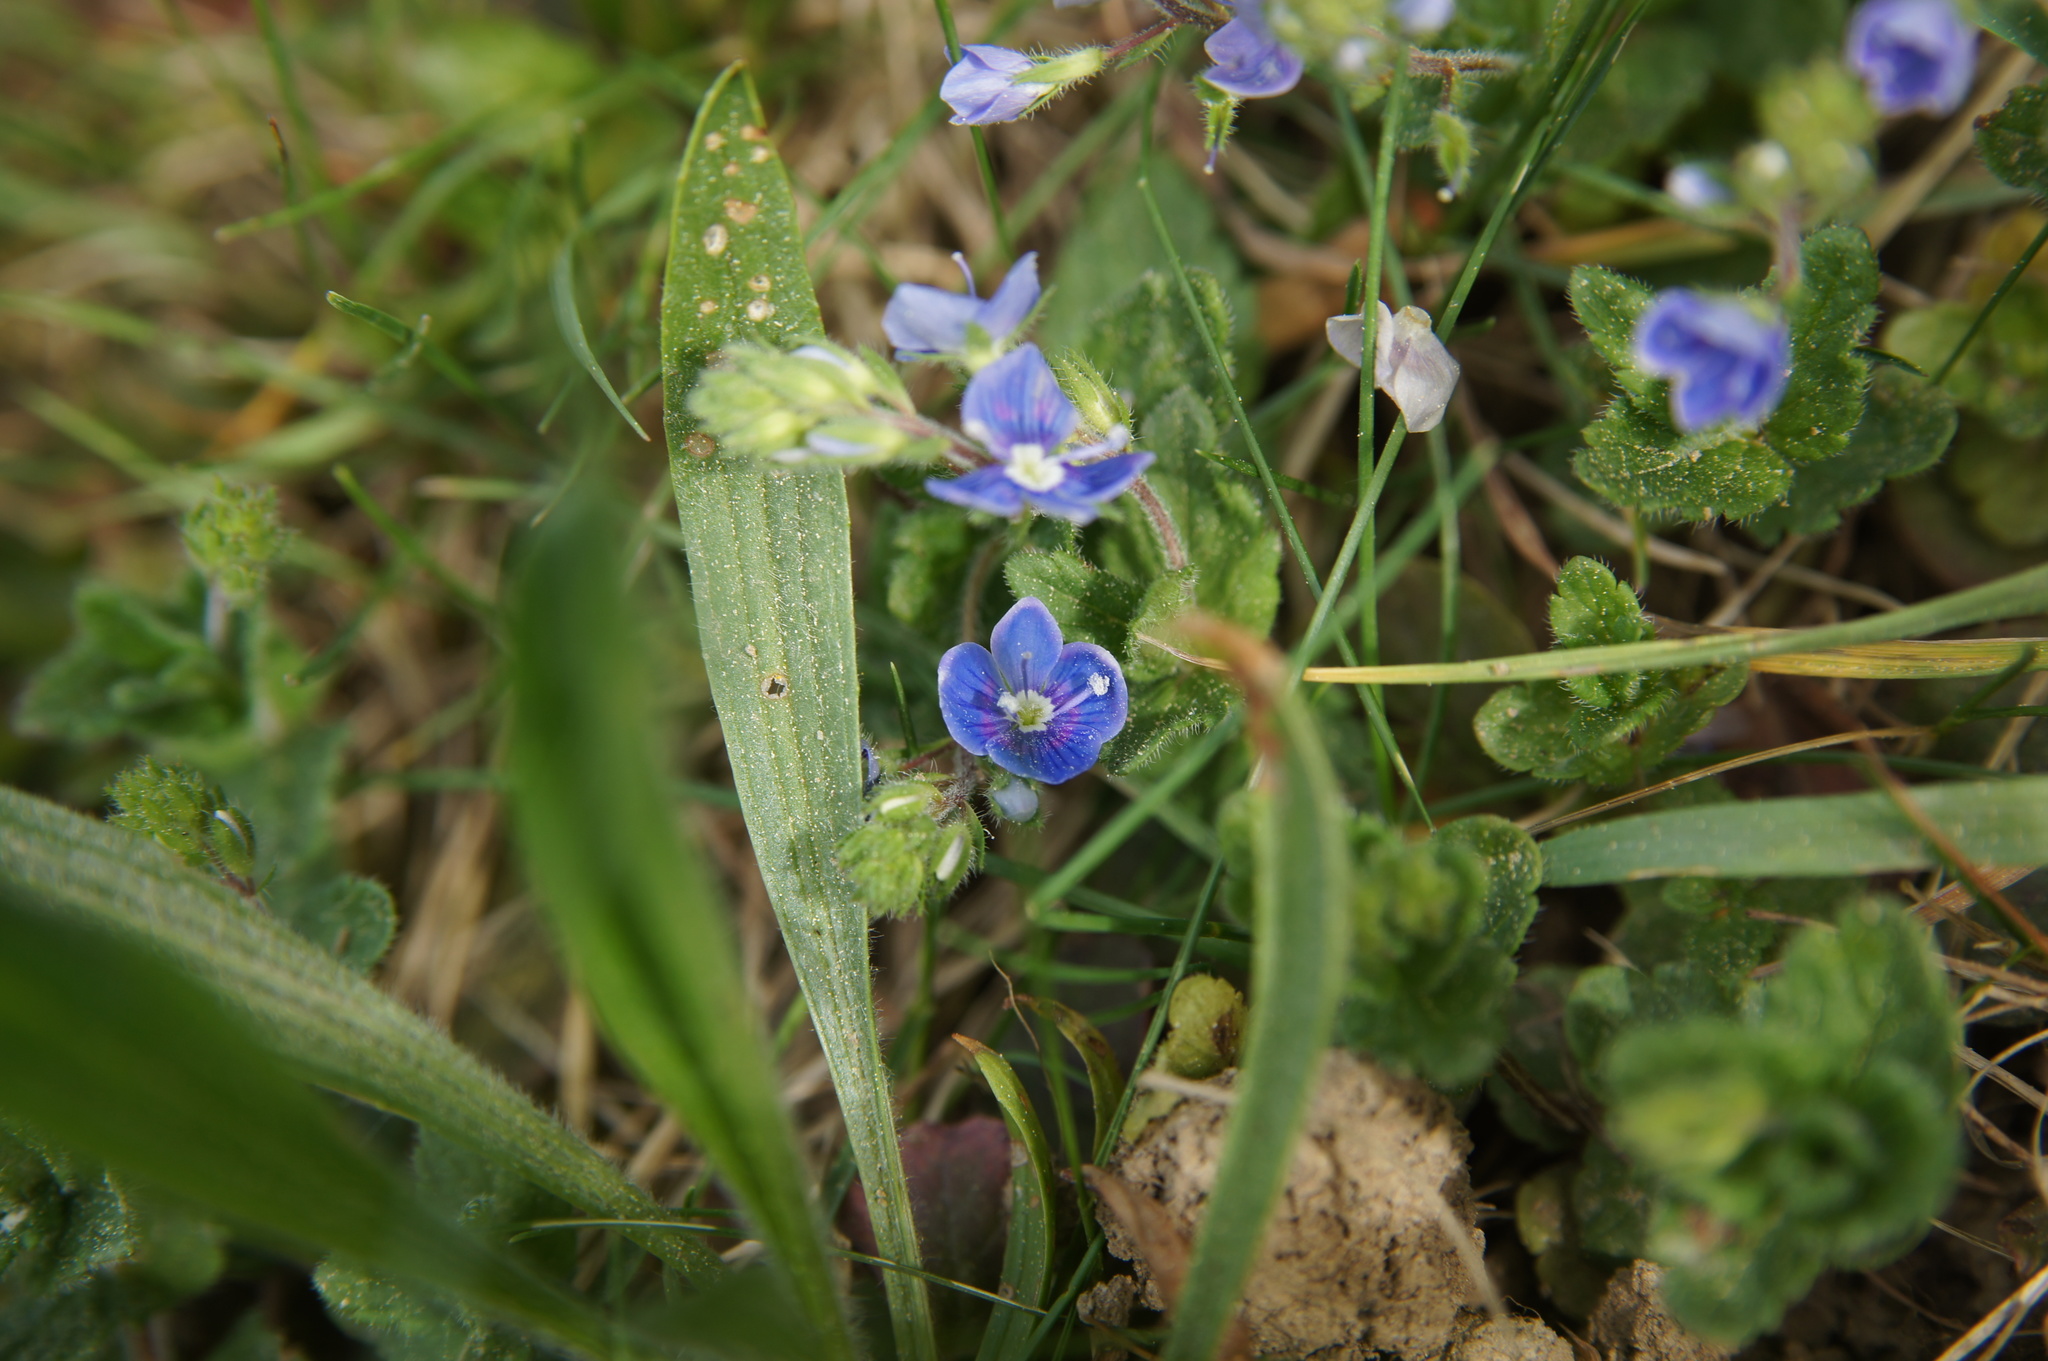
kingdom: Plantae
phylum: Tracheophyta
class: Magnoliopsida
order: Lamiales
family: Plantaginaceae
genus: Veronica
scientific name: Veronica chamaedrys
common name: Germander speedwell
